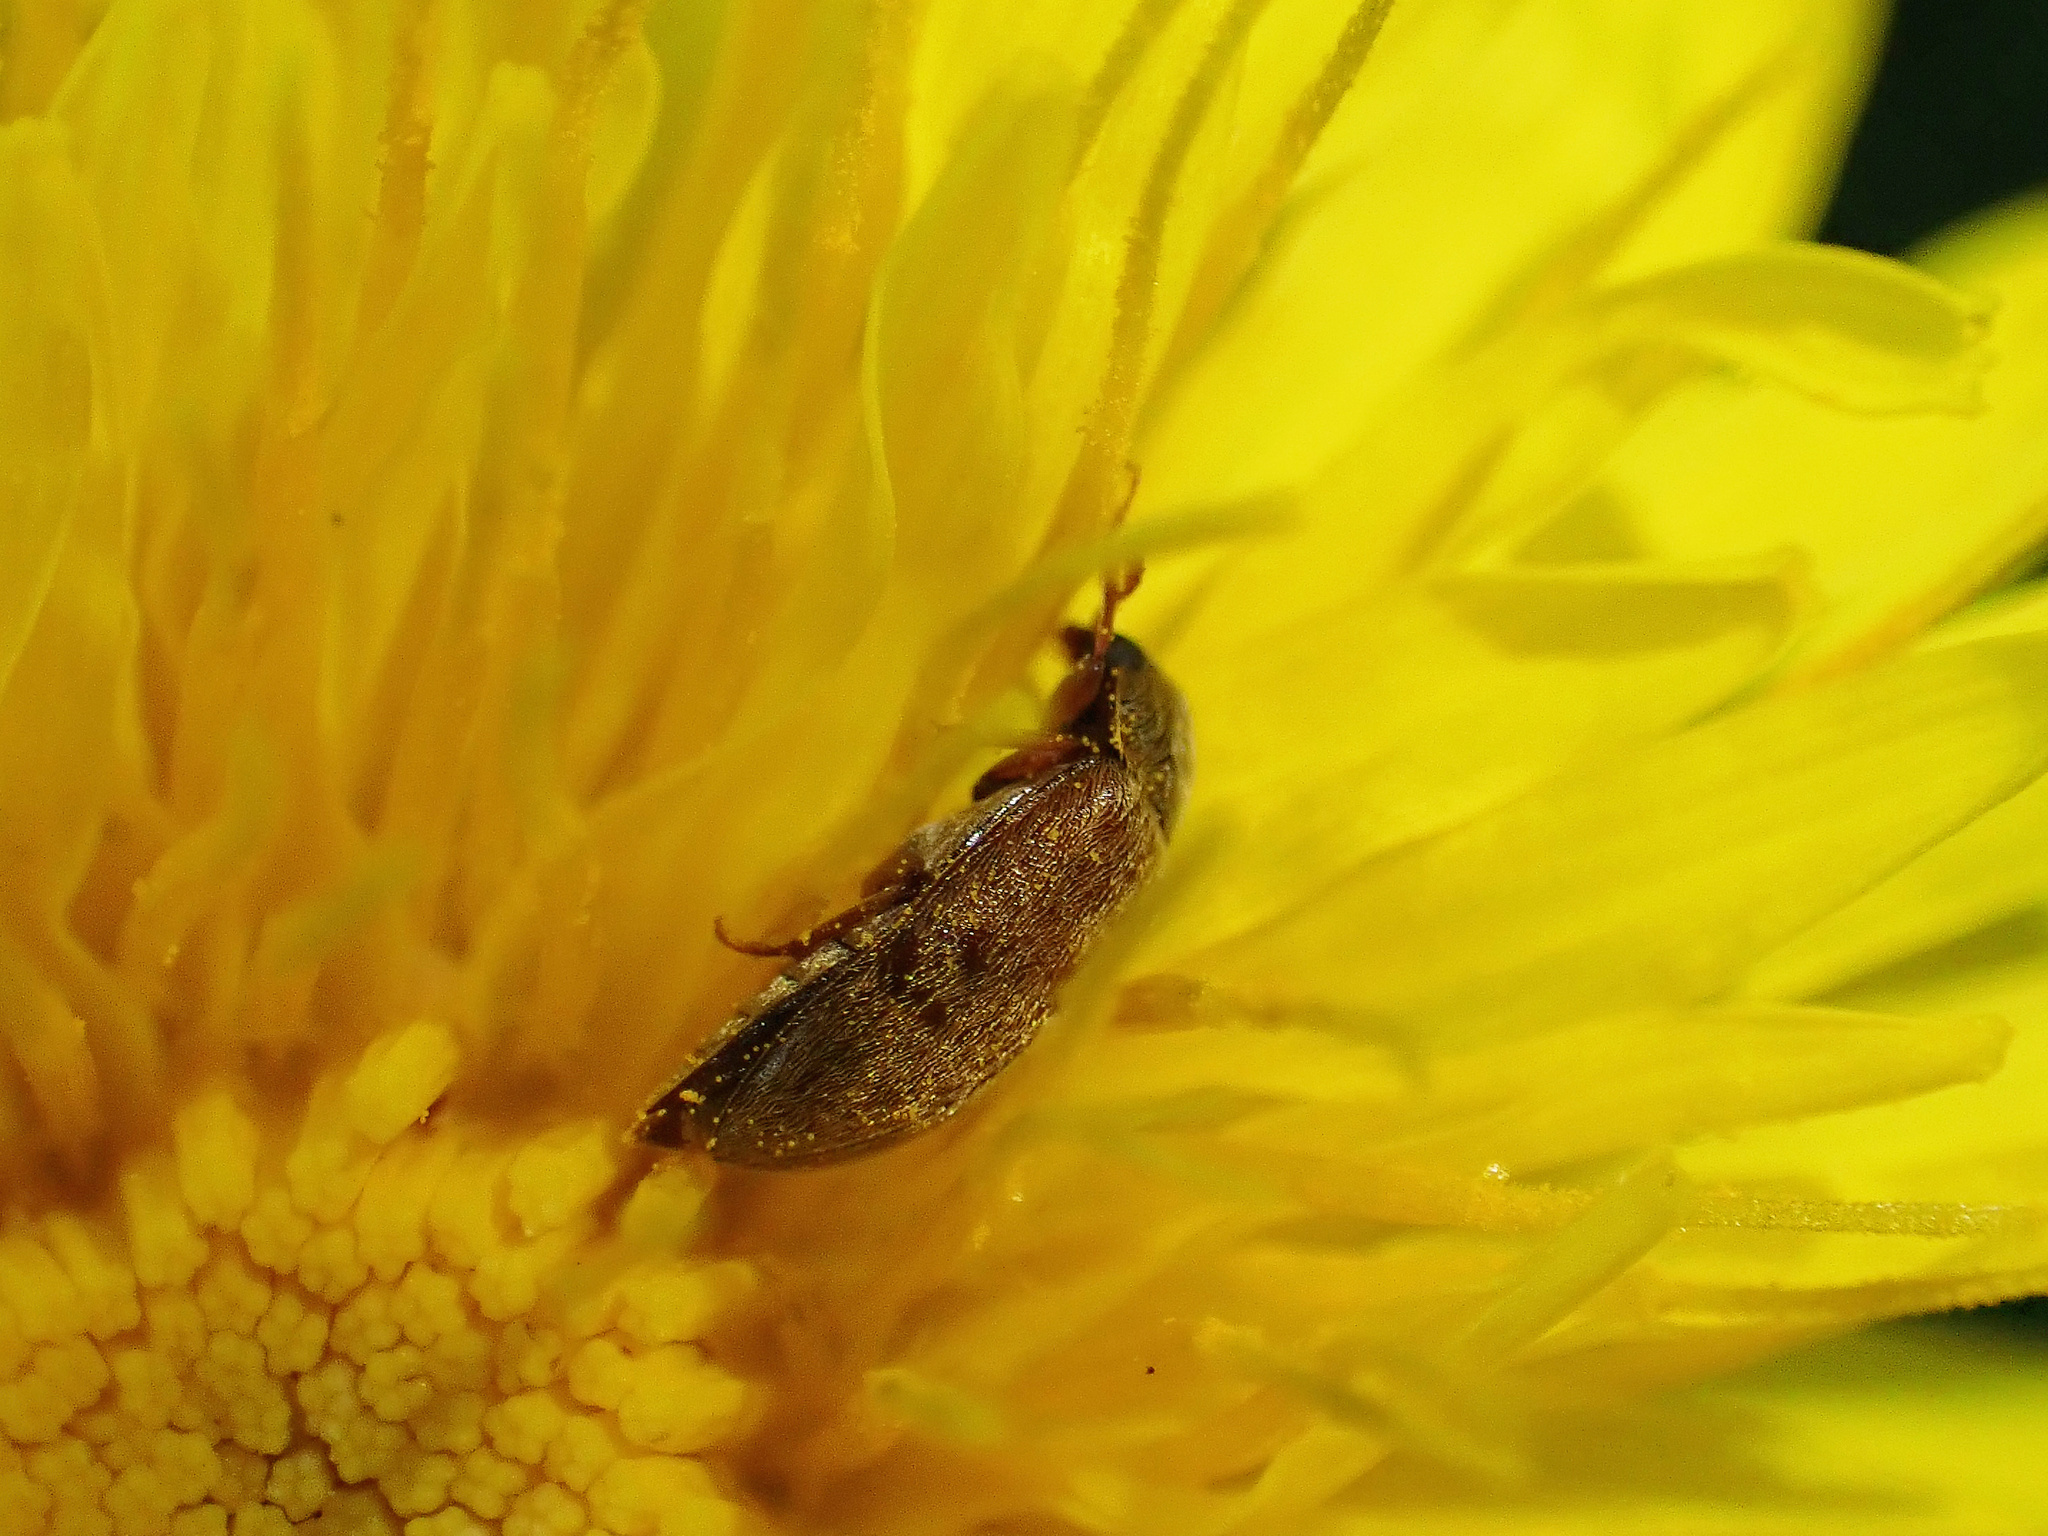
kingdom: Animalia
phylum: Arthropoda
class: Insecta
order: Coleoptera
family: Byturidae
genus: Byturus
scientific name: Byturus ochraceus
